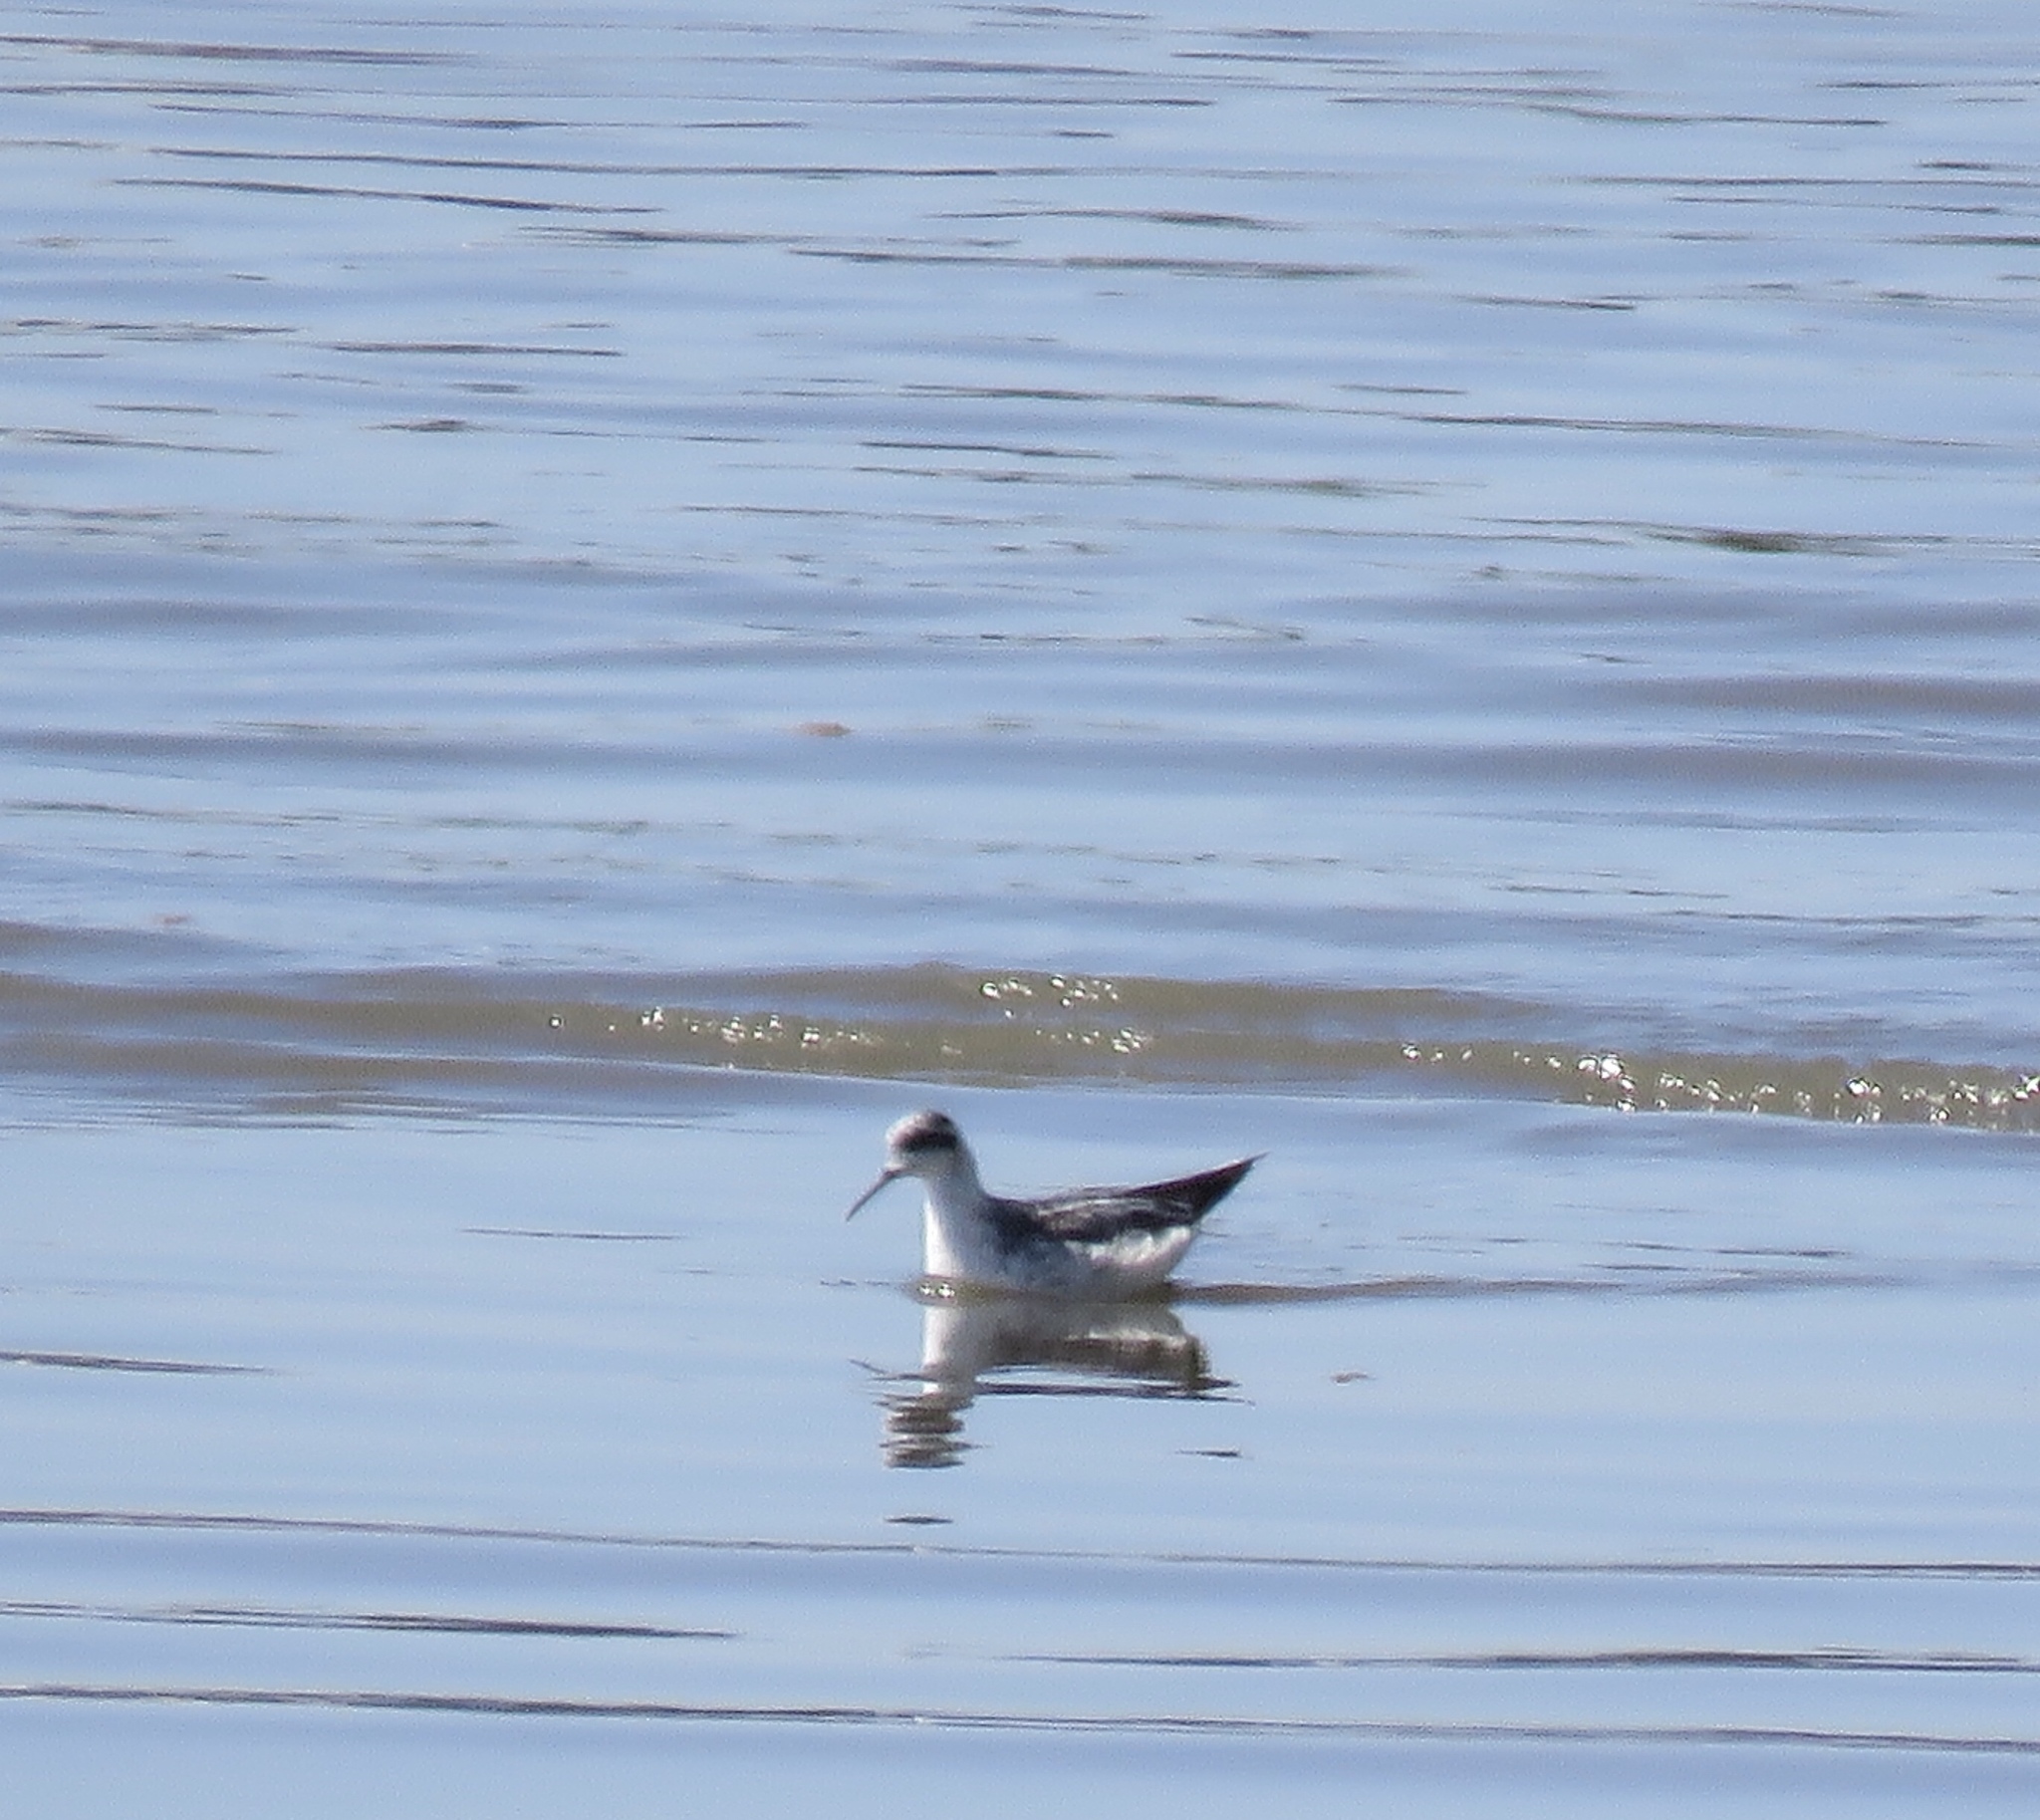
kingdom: Animalia
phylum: Chordata
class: Aves
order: Charadriiformes
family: Scolopacidae
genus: Phalaropus
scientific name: Phalaropus lobatus
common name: Red-necked phalarope
